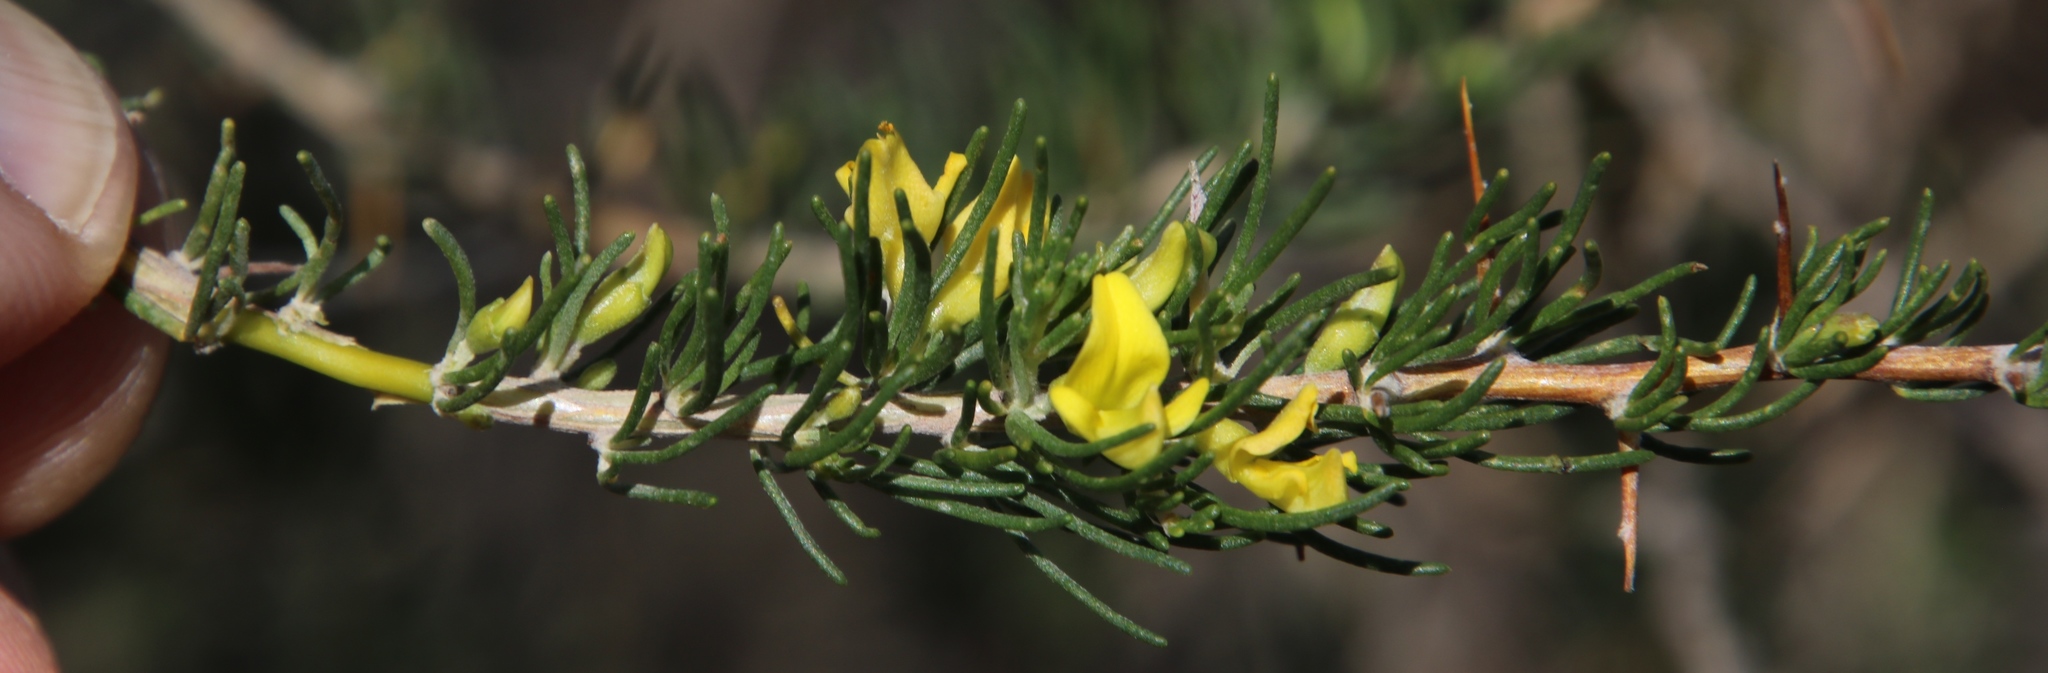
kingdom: Plantae
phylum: Tracheophyta
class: Magnoliopsida
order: Fabales
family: Fabaceae
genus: Aspalathus
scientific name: Aspalathus spinosa
